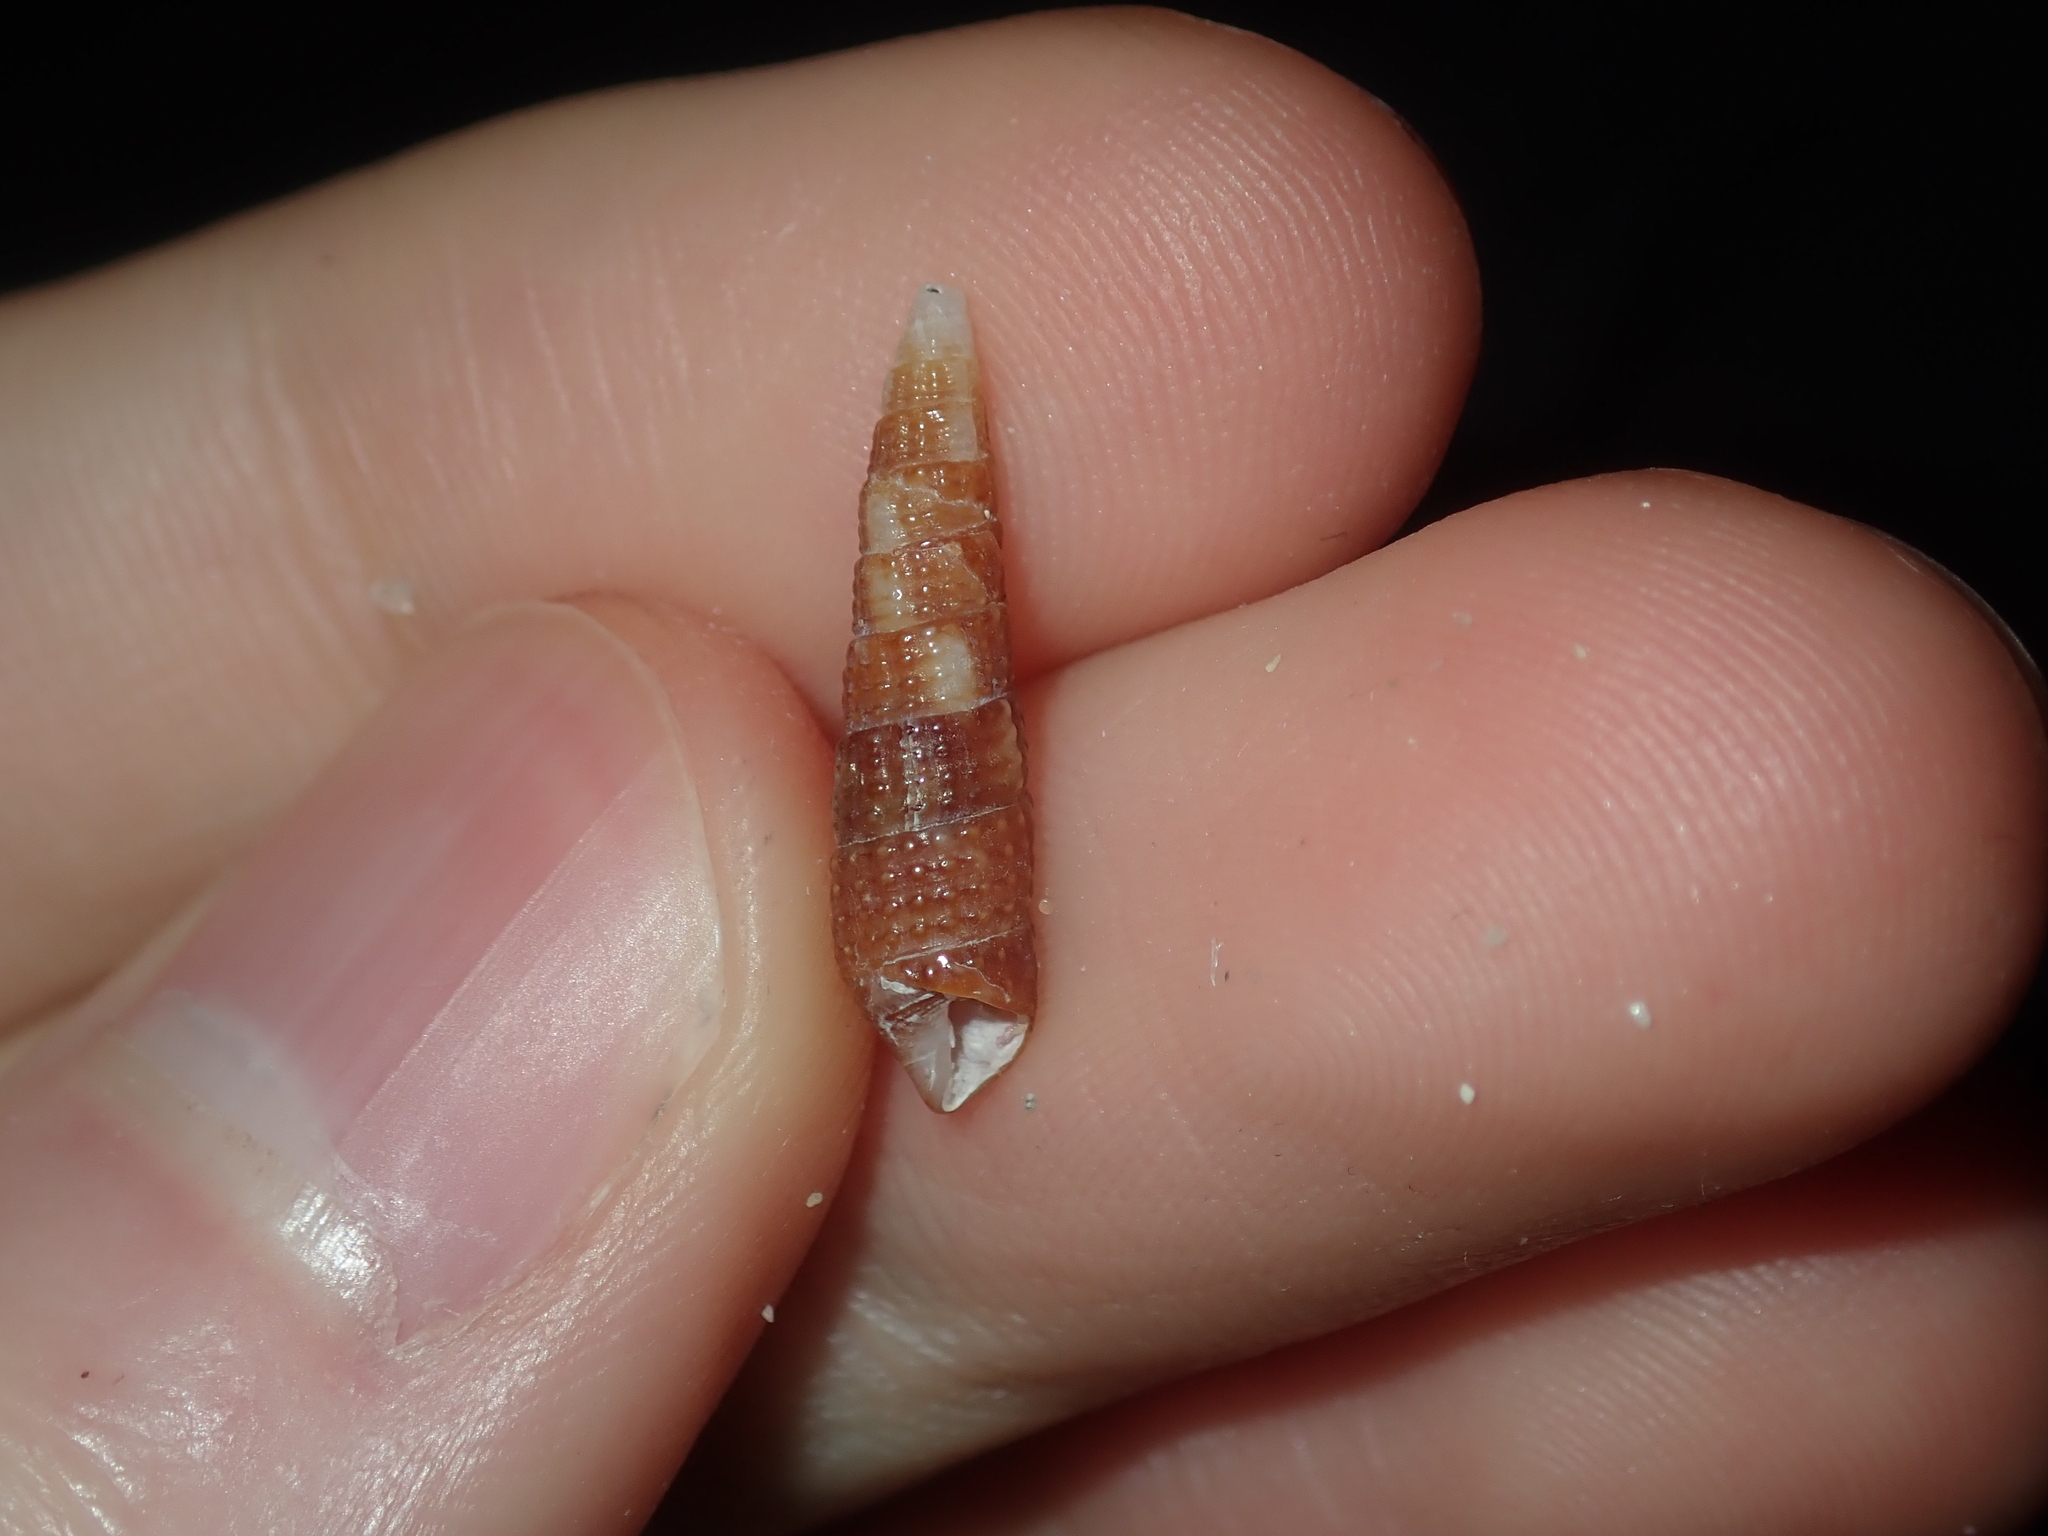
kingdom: Animalia
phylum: Mollusca
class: Gastropoda
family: Cerithiidae
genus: Cacozeliana
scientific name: Cacozeliana granarium
